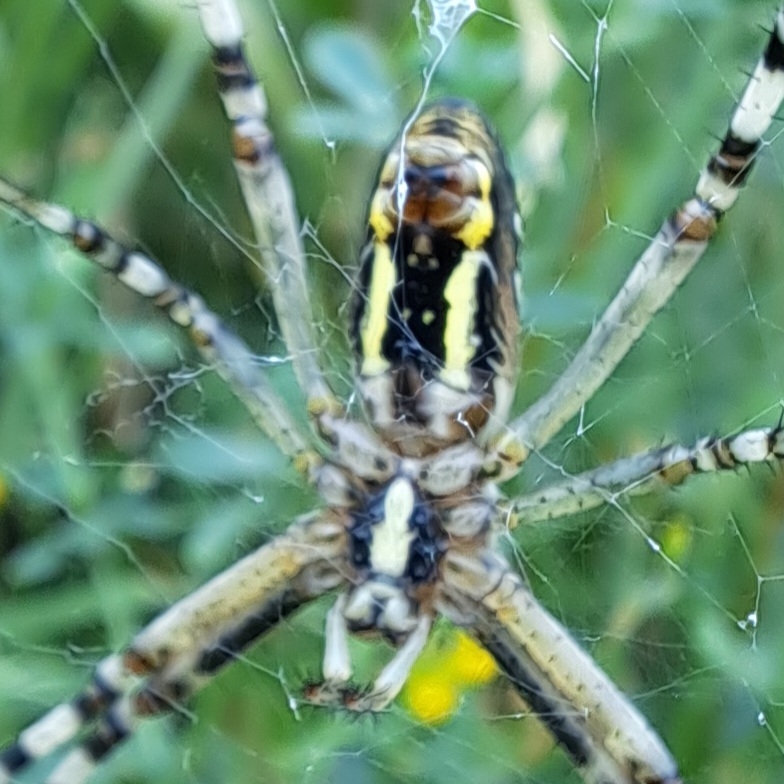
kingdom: Animalia
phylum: Arthropoda
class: Arachnida
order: Araneae
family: Araneidae
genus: Argiope
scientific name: Argiope bruennichi
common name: Wasp spider
